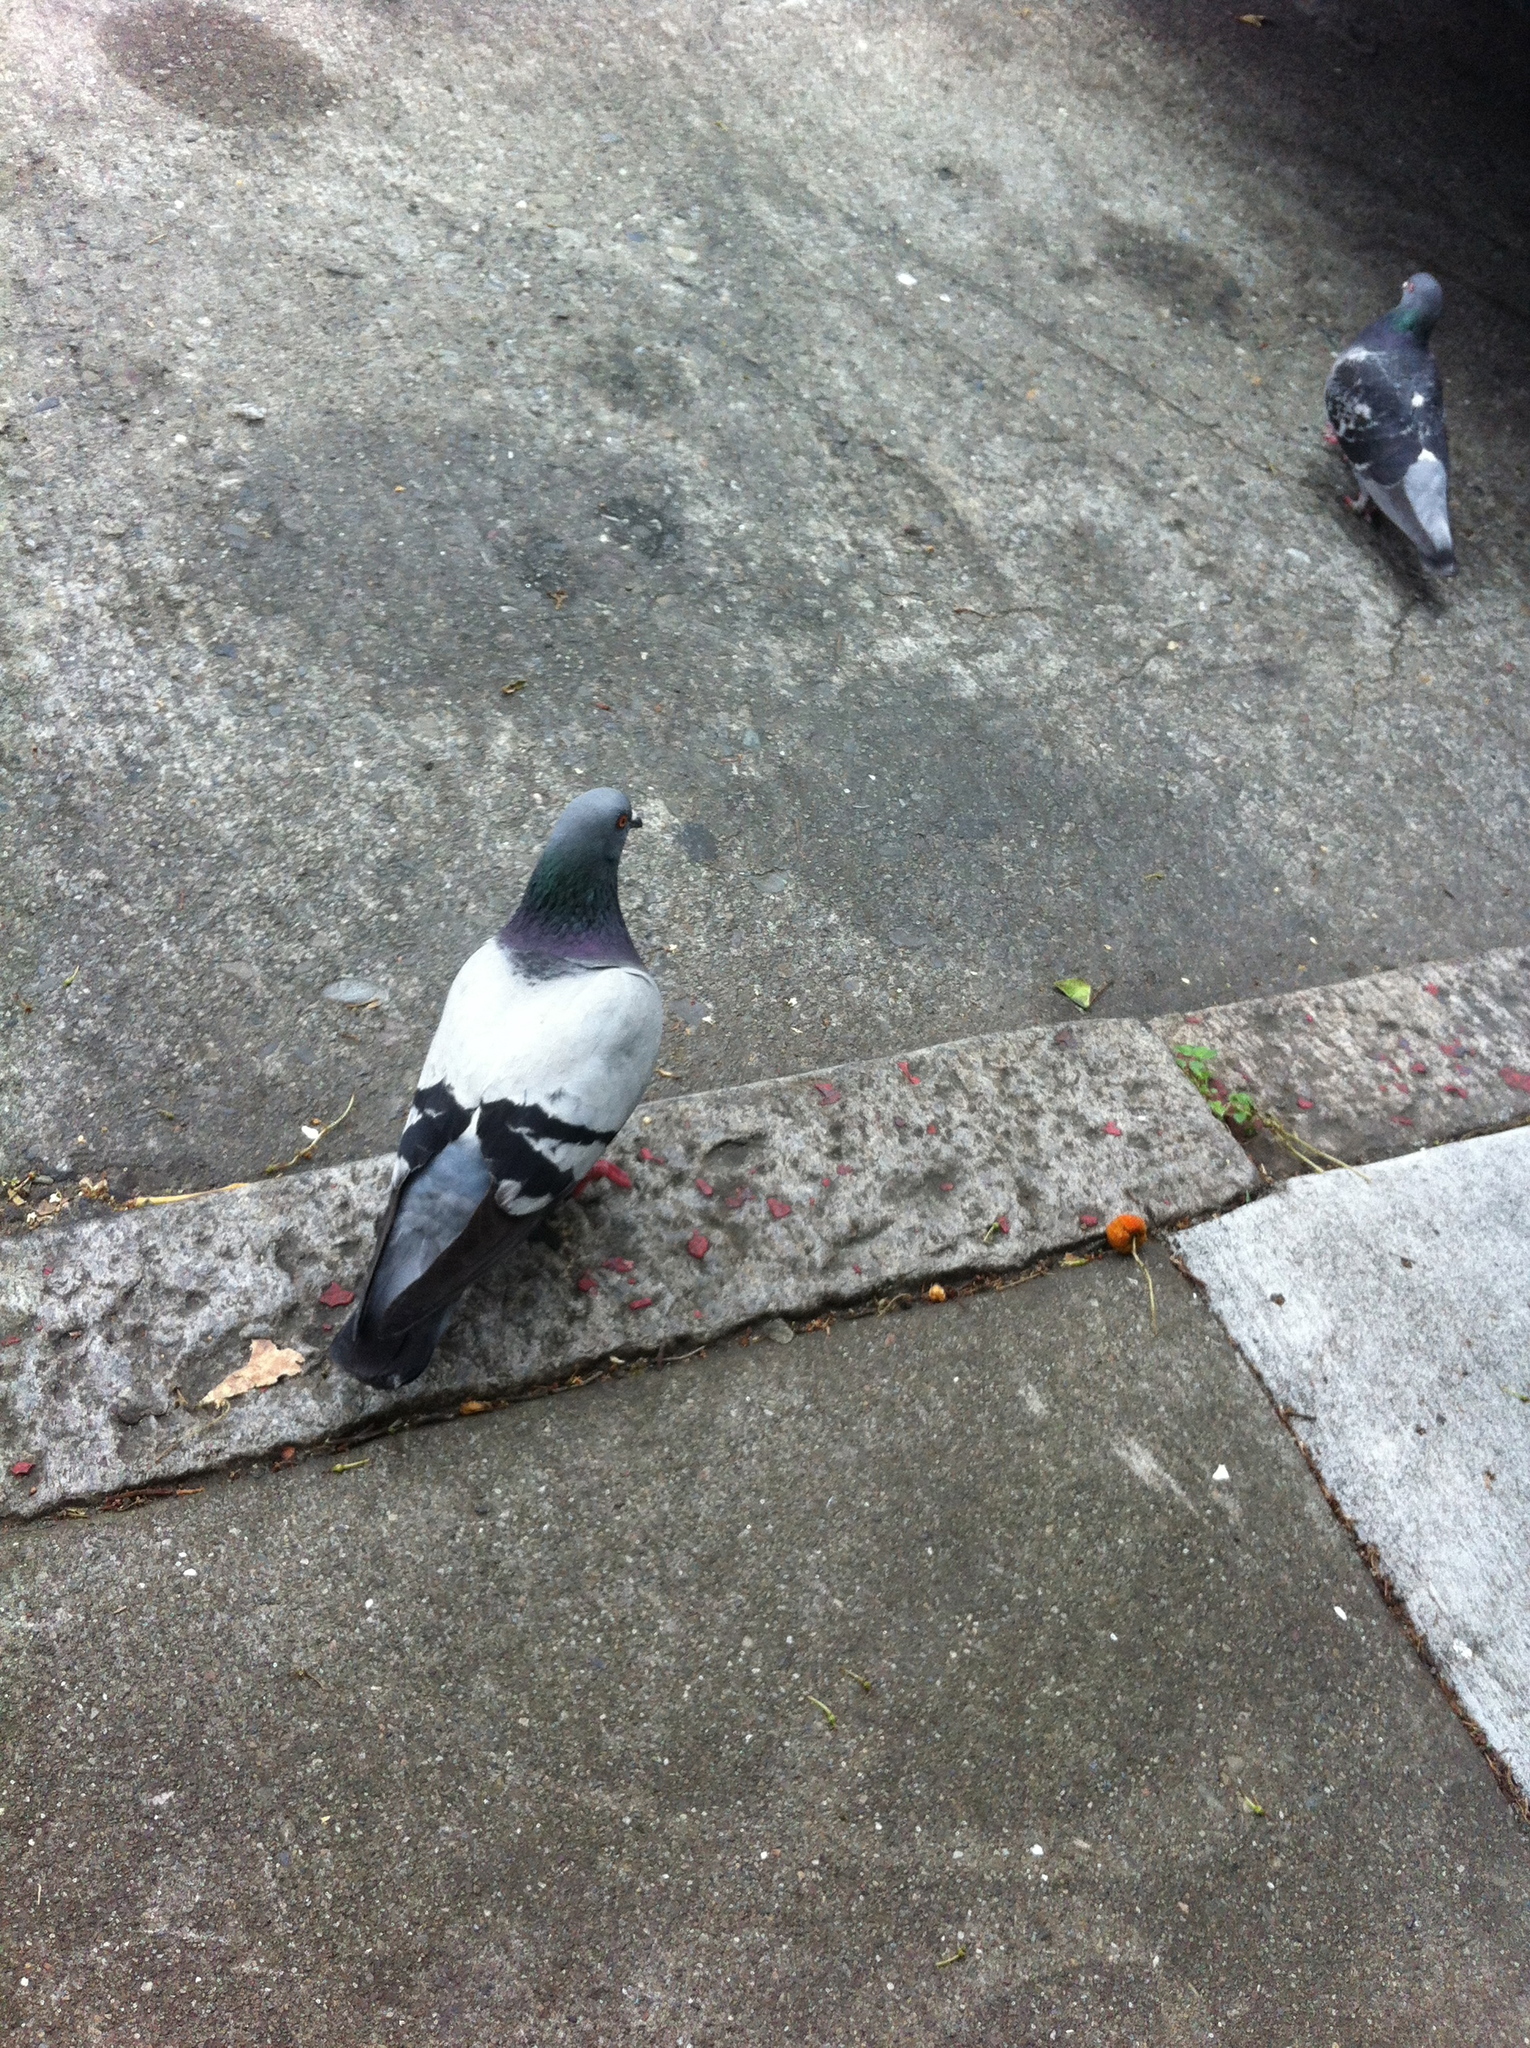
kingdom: Animalia
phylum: Chordata
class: Aves
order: Columbiformes
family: Columbidae
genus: Columba
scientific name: Columba livia
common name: Rock pigeon
